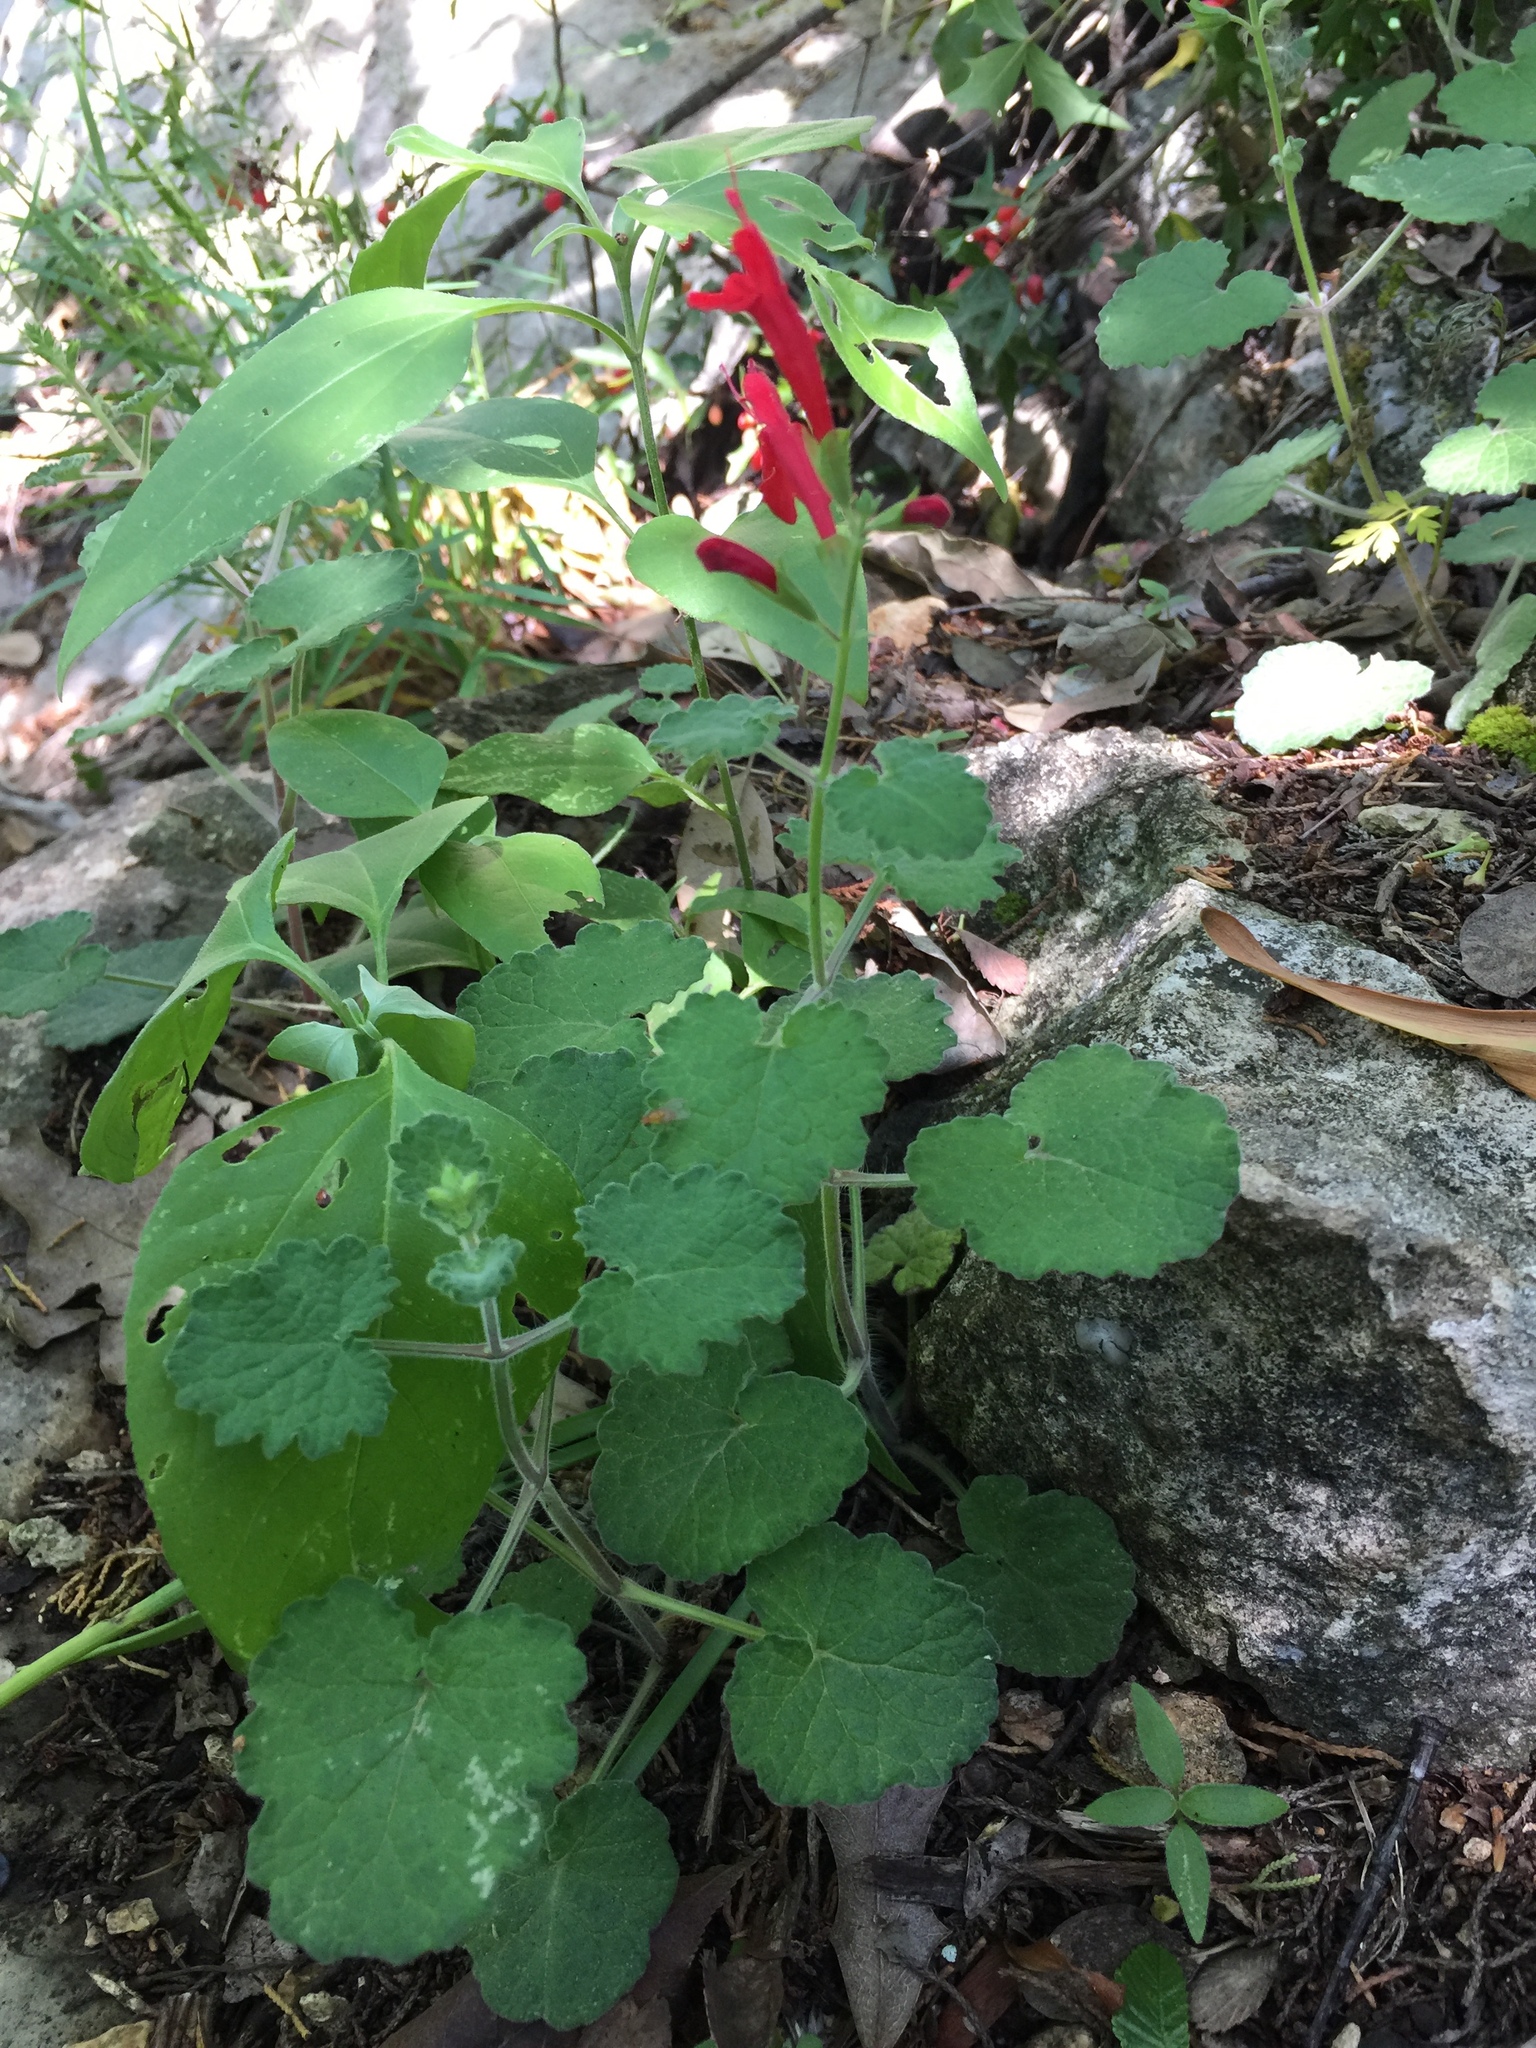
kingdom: Plantae
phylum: Tracheophyta
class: Magnoliopsida
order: Lamiales
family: Lamiaceae
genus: Salvia
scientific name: Salvia roemeriana
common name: Cedar sage
